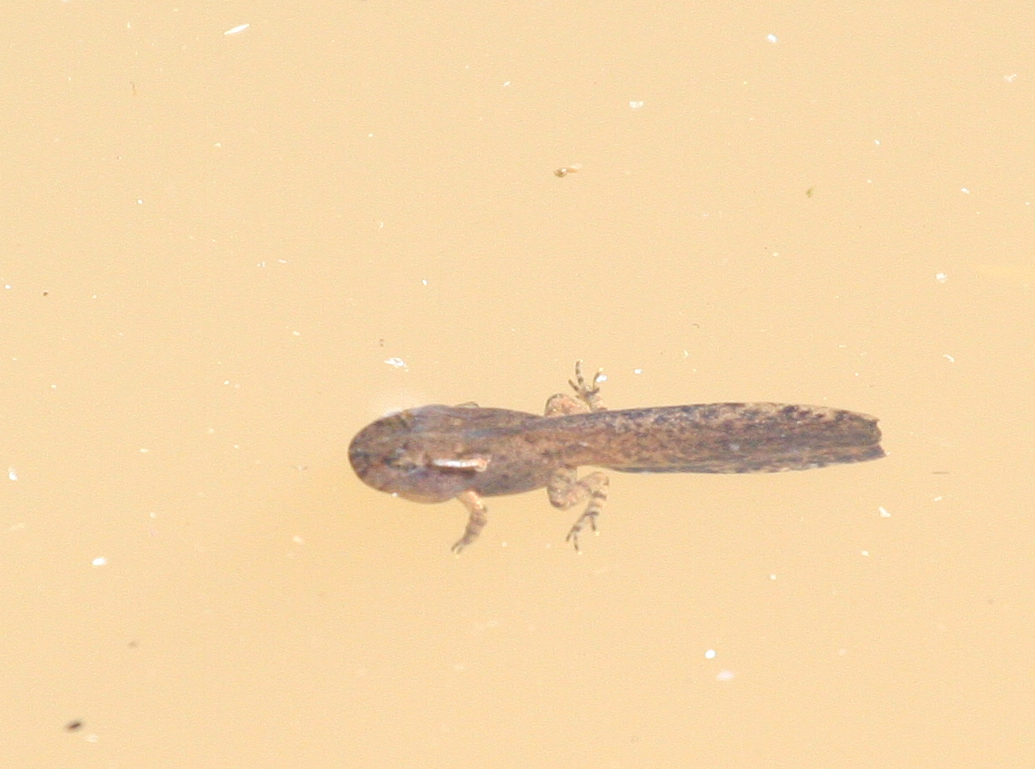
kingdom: Animalia
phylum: Chordata
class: Amphibia
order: Anura
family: Bombinatoridae
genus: Bombina
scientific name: Bombina orientalis
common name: Oriental firebelly toad
